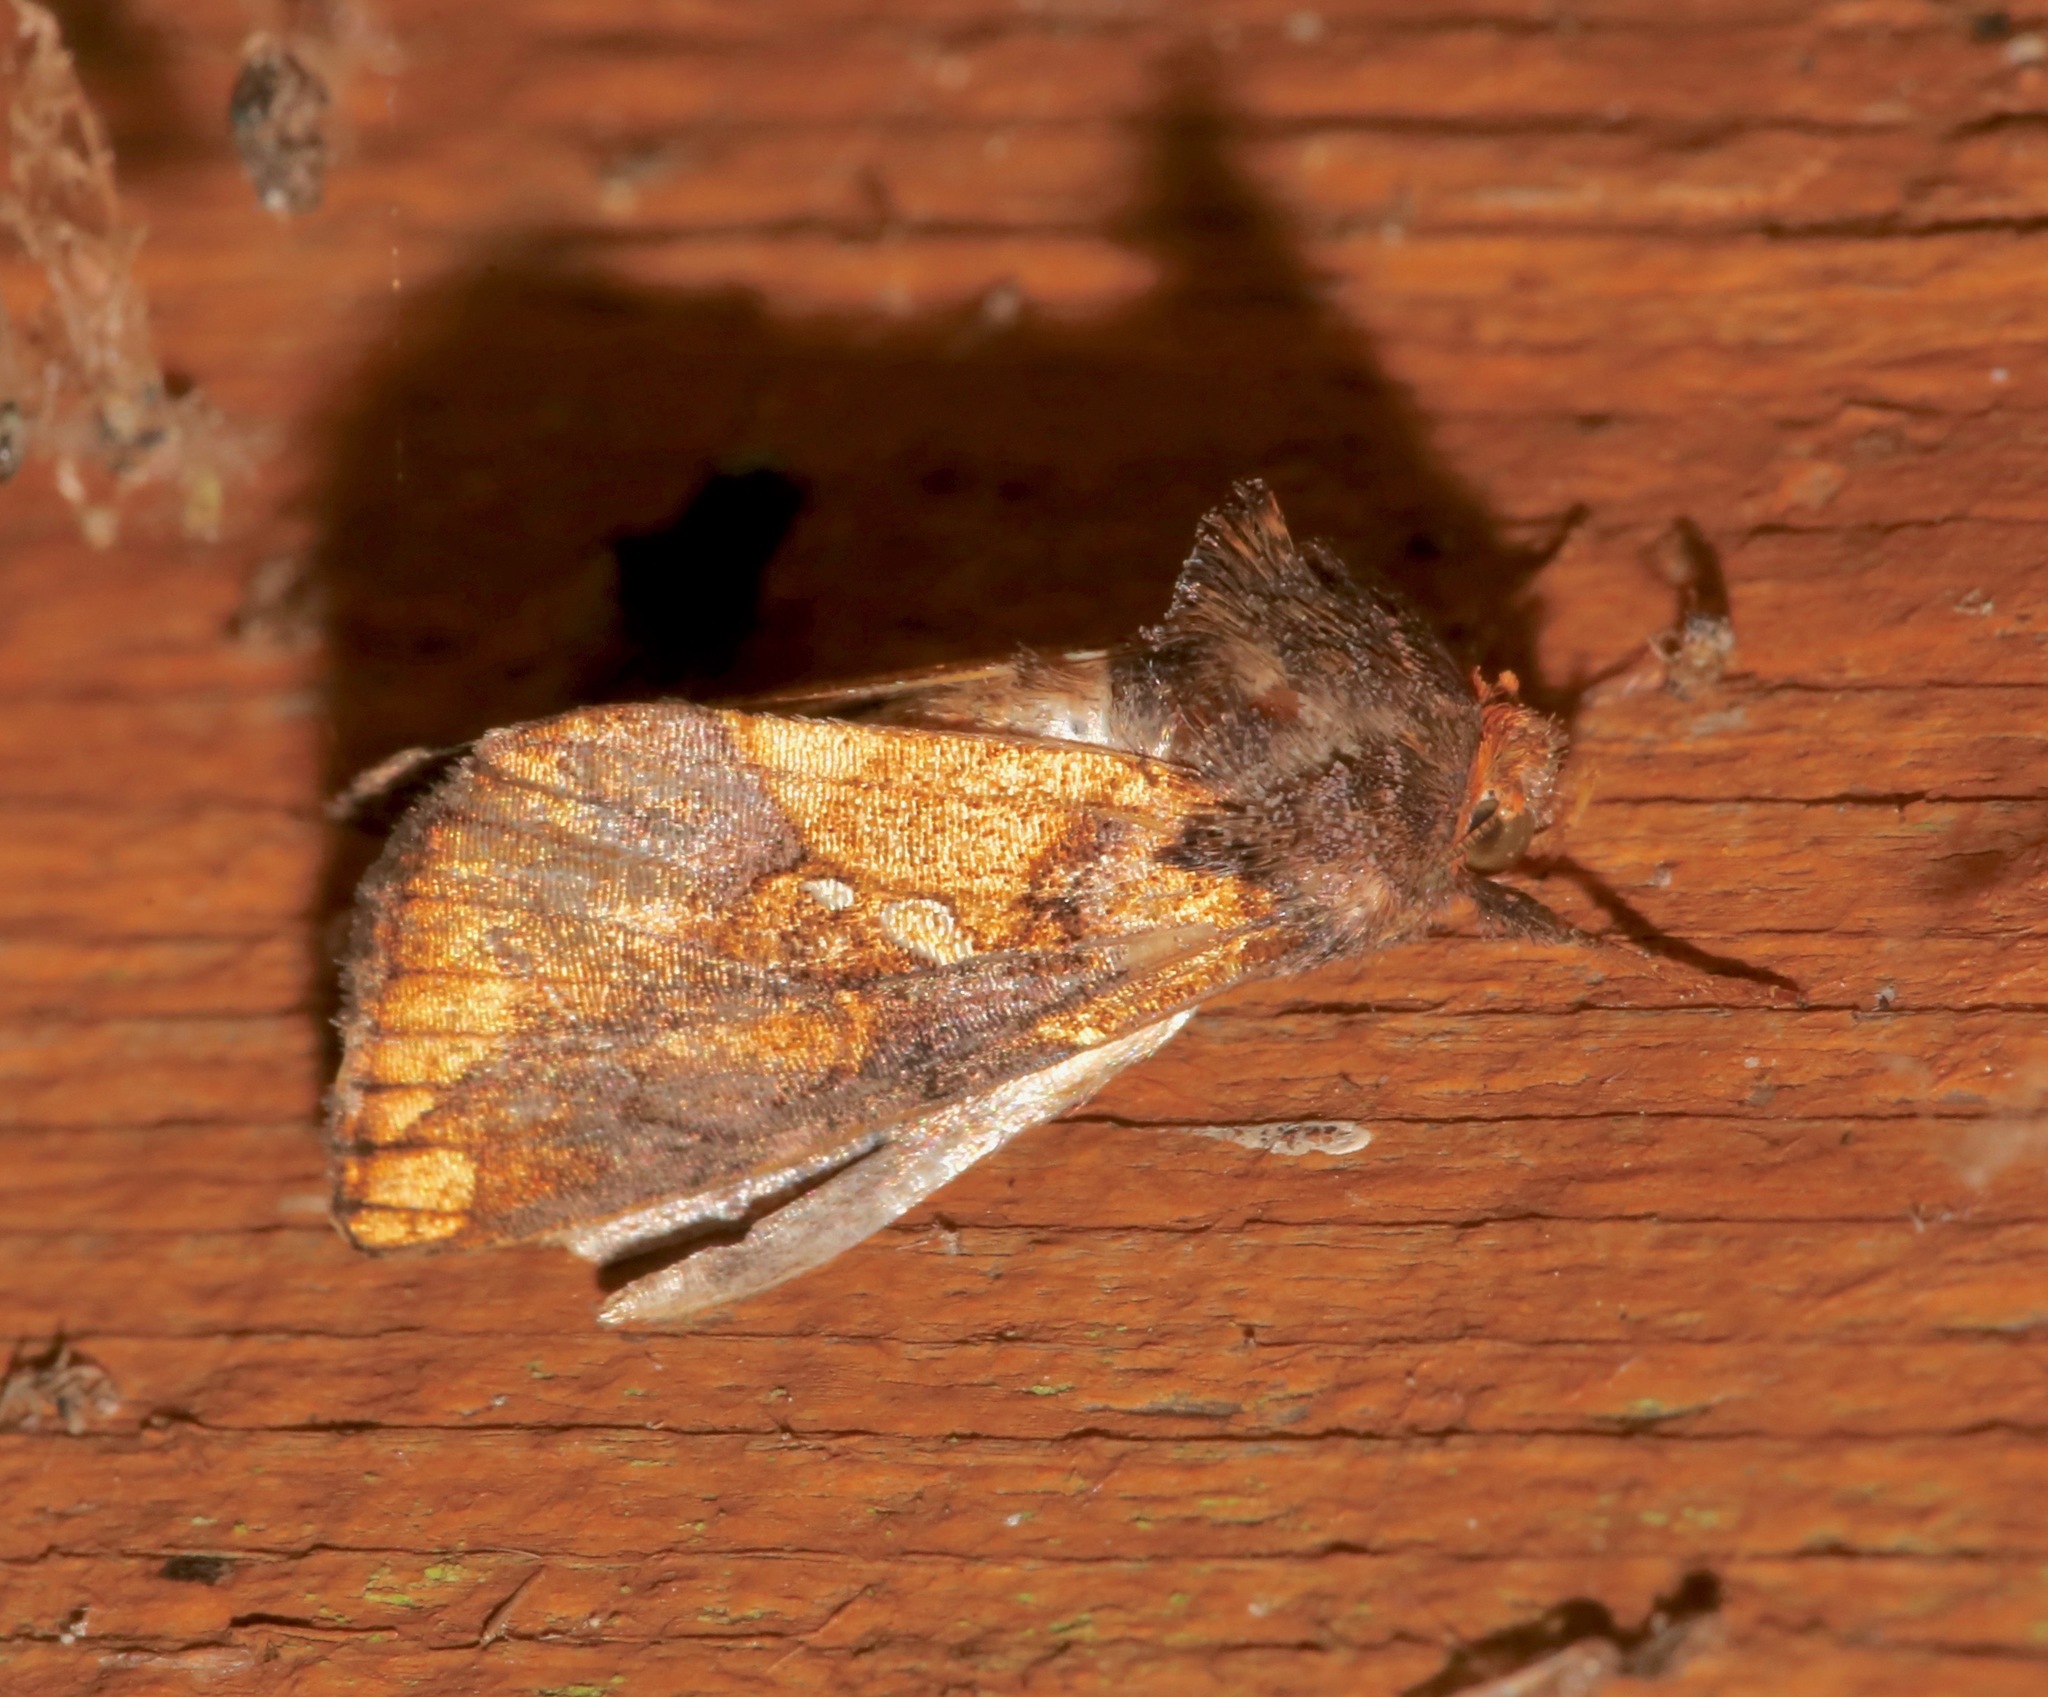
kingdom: Animalia
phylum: Arthropoda
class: Insecta
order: Lepidoptera
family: Noctuidae
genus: Argyrogramma
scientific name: Argyrogramma verruca
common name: Golden looper moth
